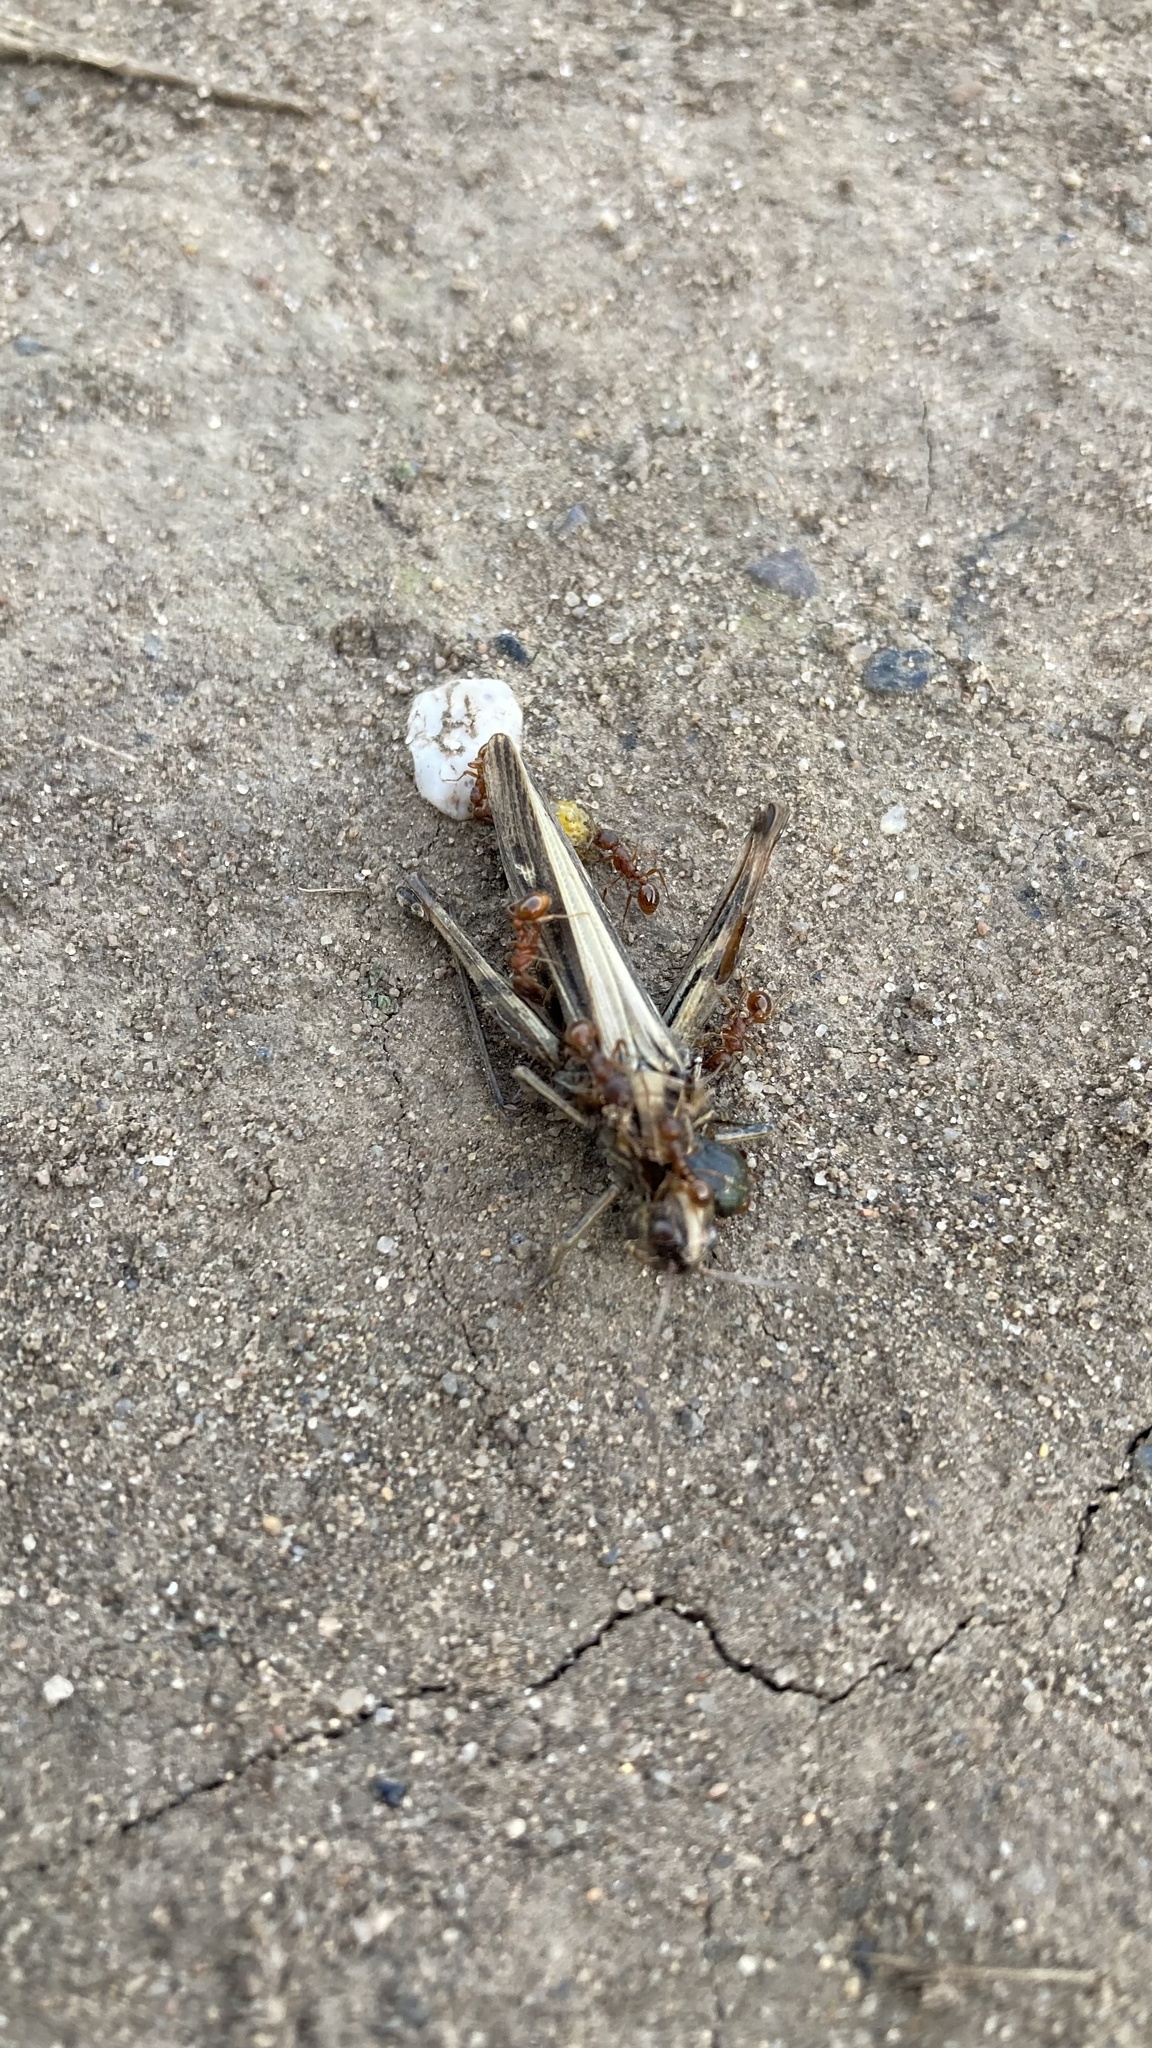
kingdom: Animalia
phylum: Arthropoda
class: Insecta
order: Orthoptera
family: Acrididae
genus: Chorthippus
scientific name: Chorthippus brunneus
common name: Field grasshopper
